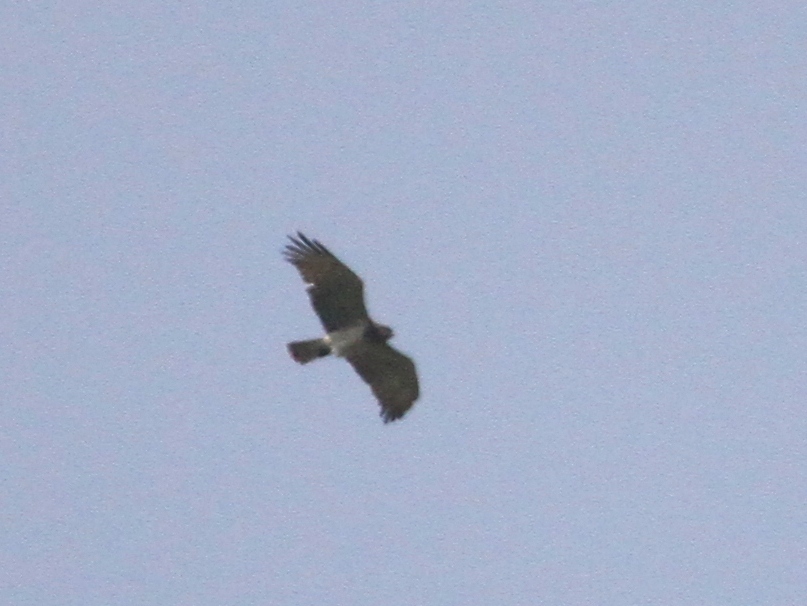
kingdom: Animalia
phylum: Chordata
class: Aves
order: Accipitriformes
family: Accipitridae
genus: Circaetus
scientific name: Circaetus gallicus
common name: Short-toed snake eagle
